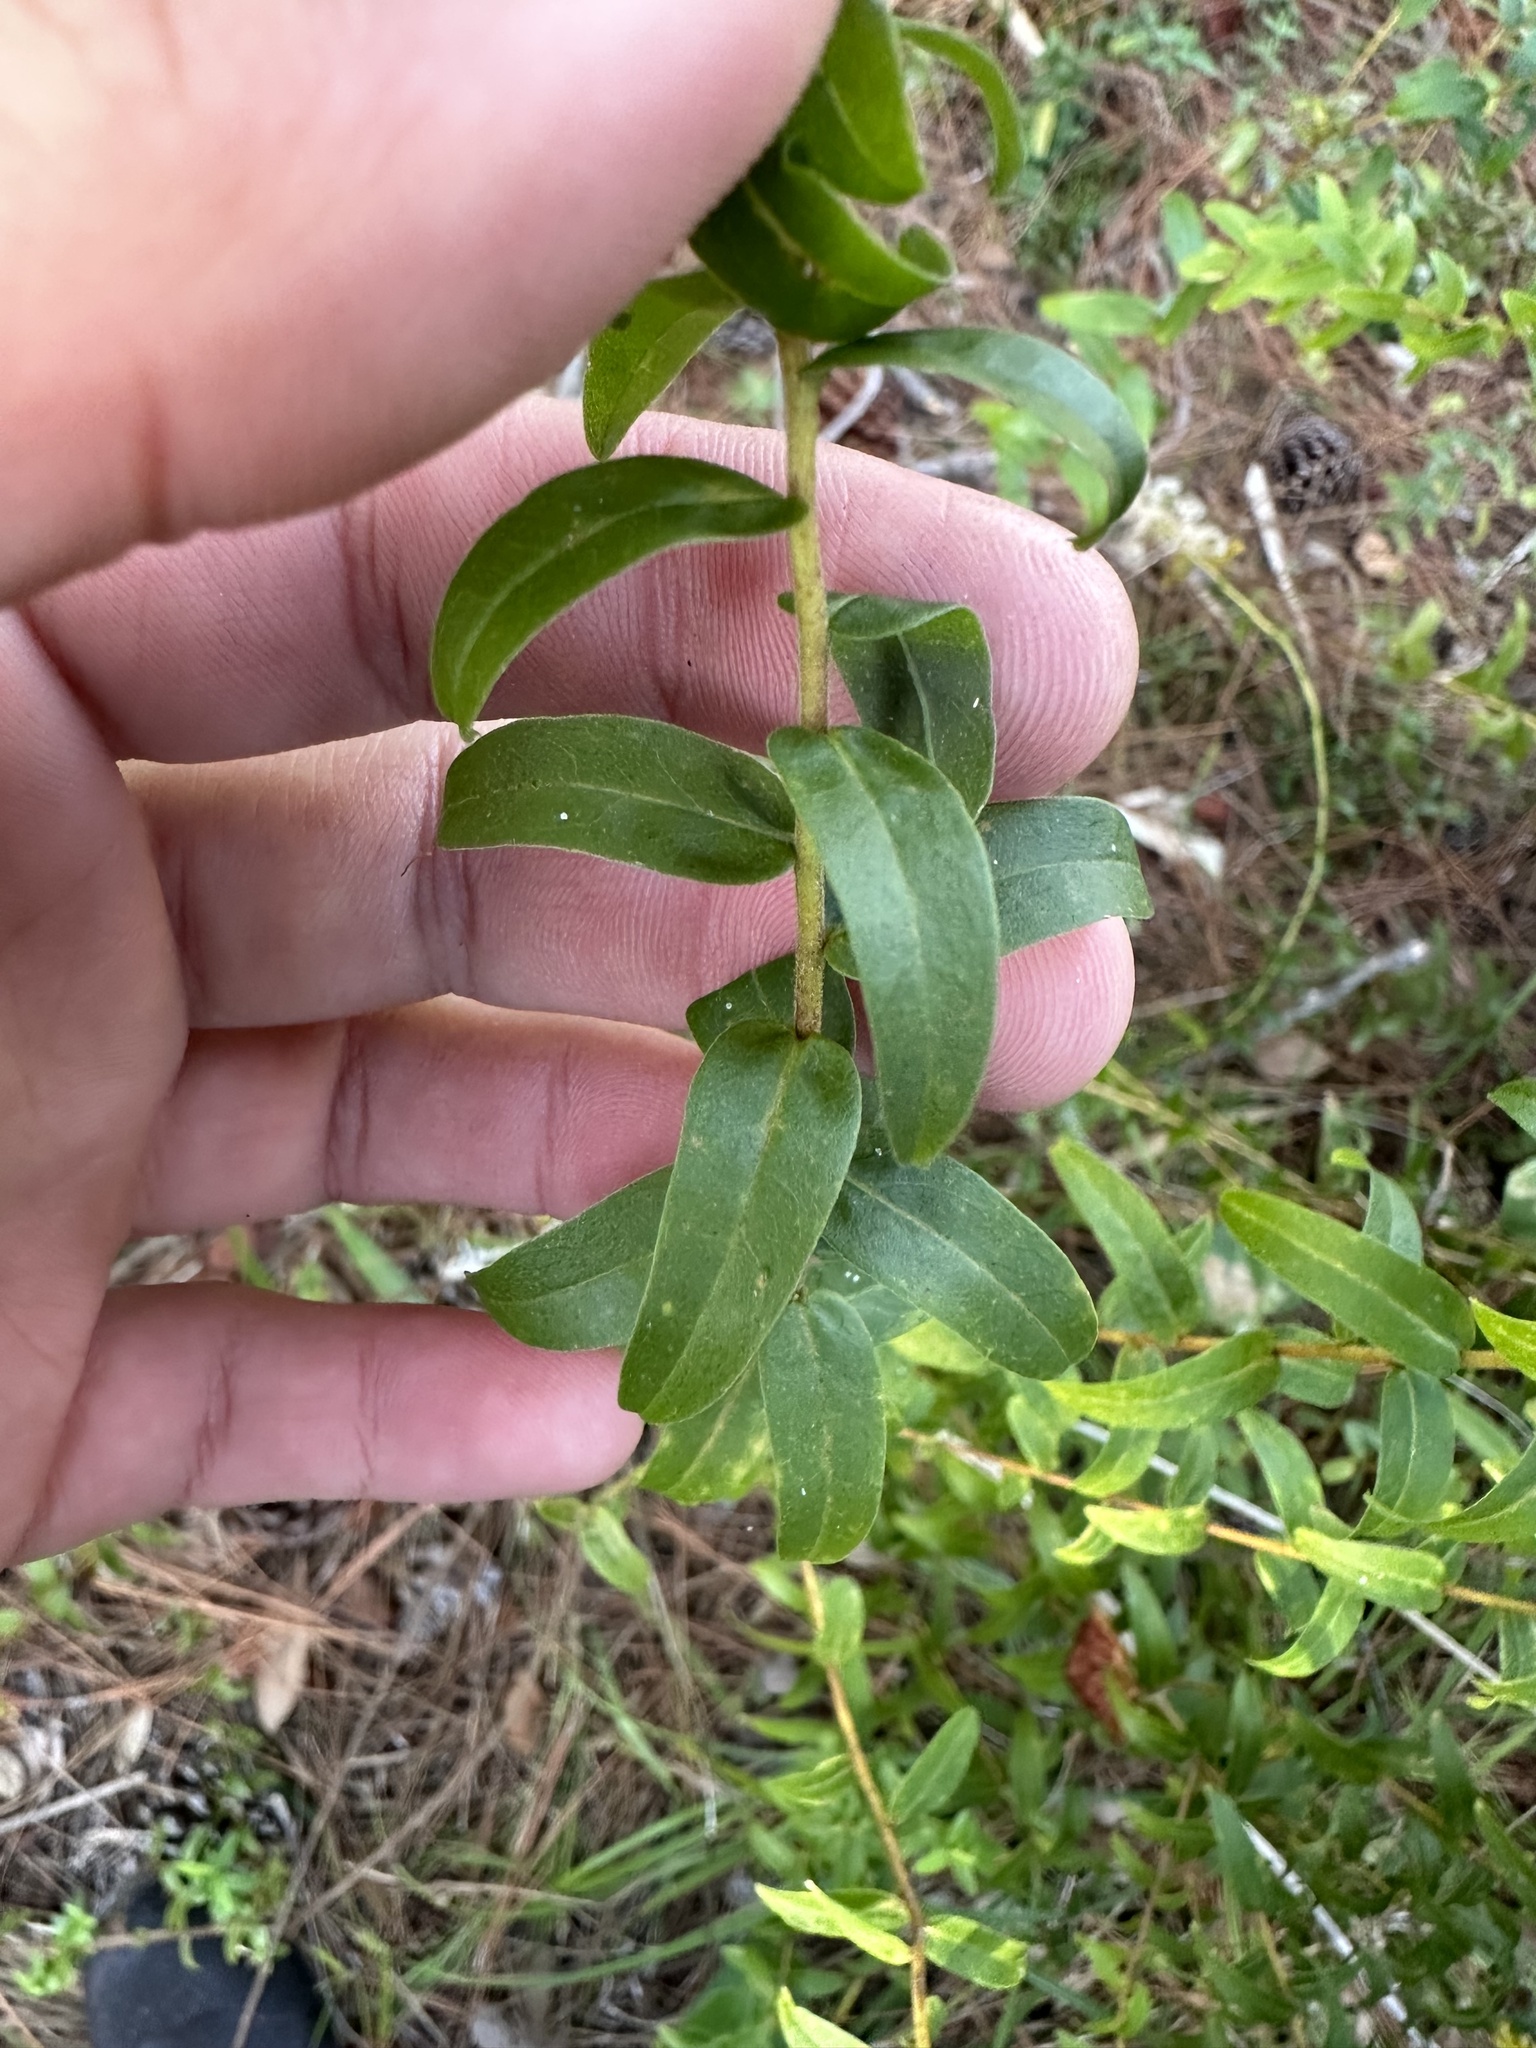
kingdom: Plantae
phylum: Tracheophyta
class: Magnoliopsida
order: Asterales
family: Asteraceae
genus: Solidago
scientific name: Solidago chapmanii
